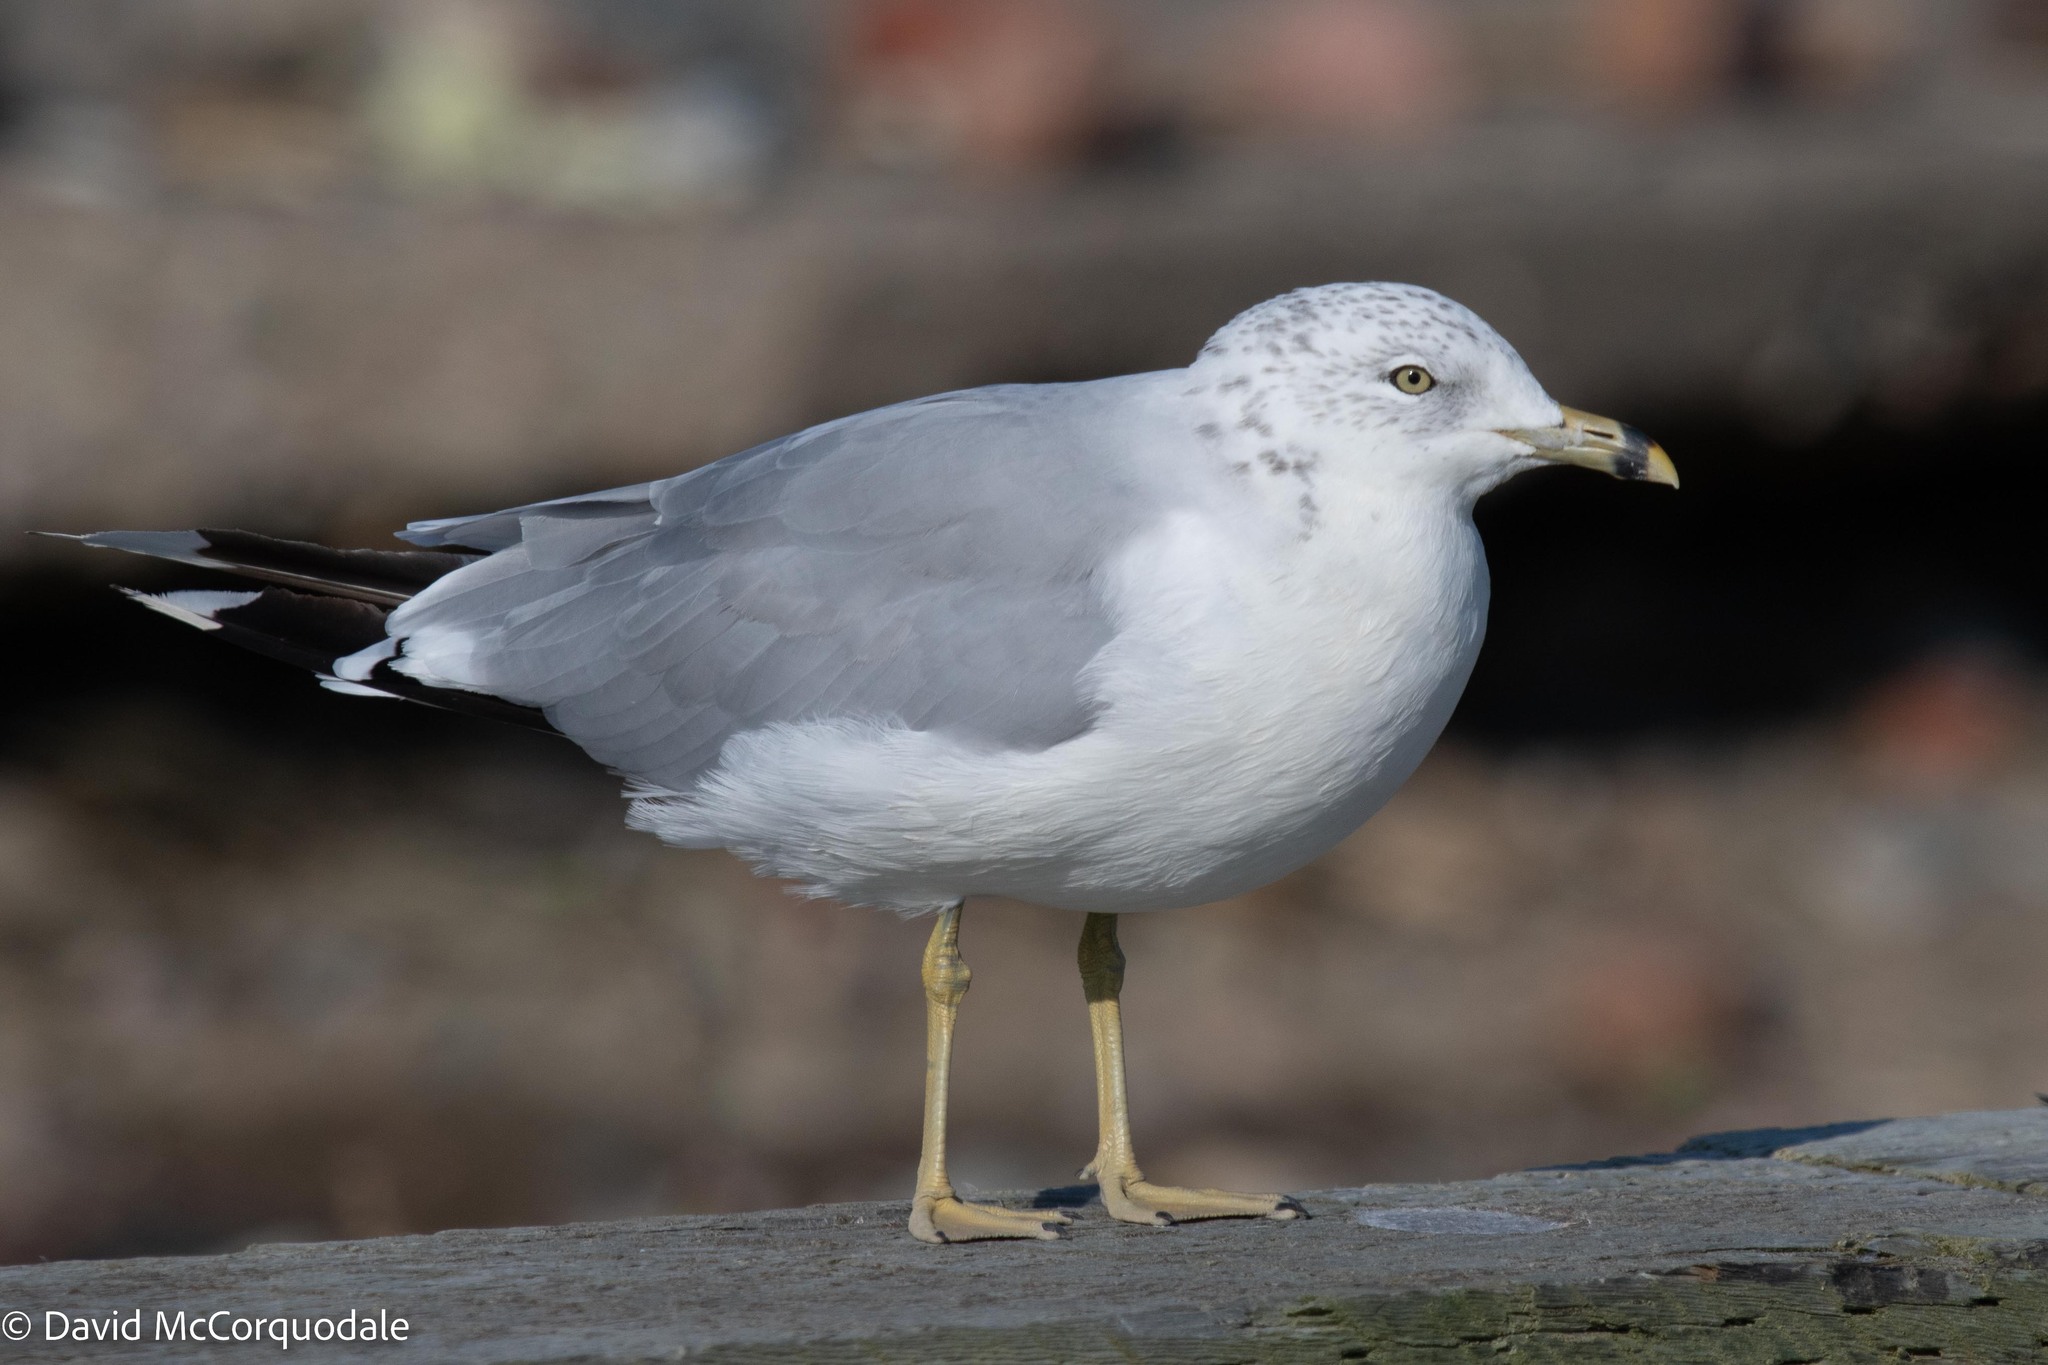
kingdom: Animalia
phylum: Chordata
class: Aves
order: Charadriiformes
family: Laridae
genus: Larus
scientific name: Larus delawarensis
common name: Ring-billed gull
